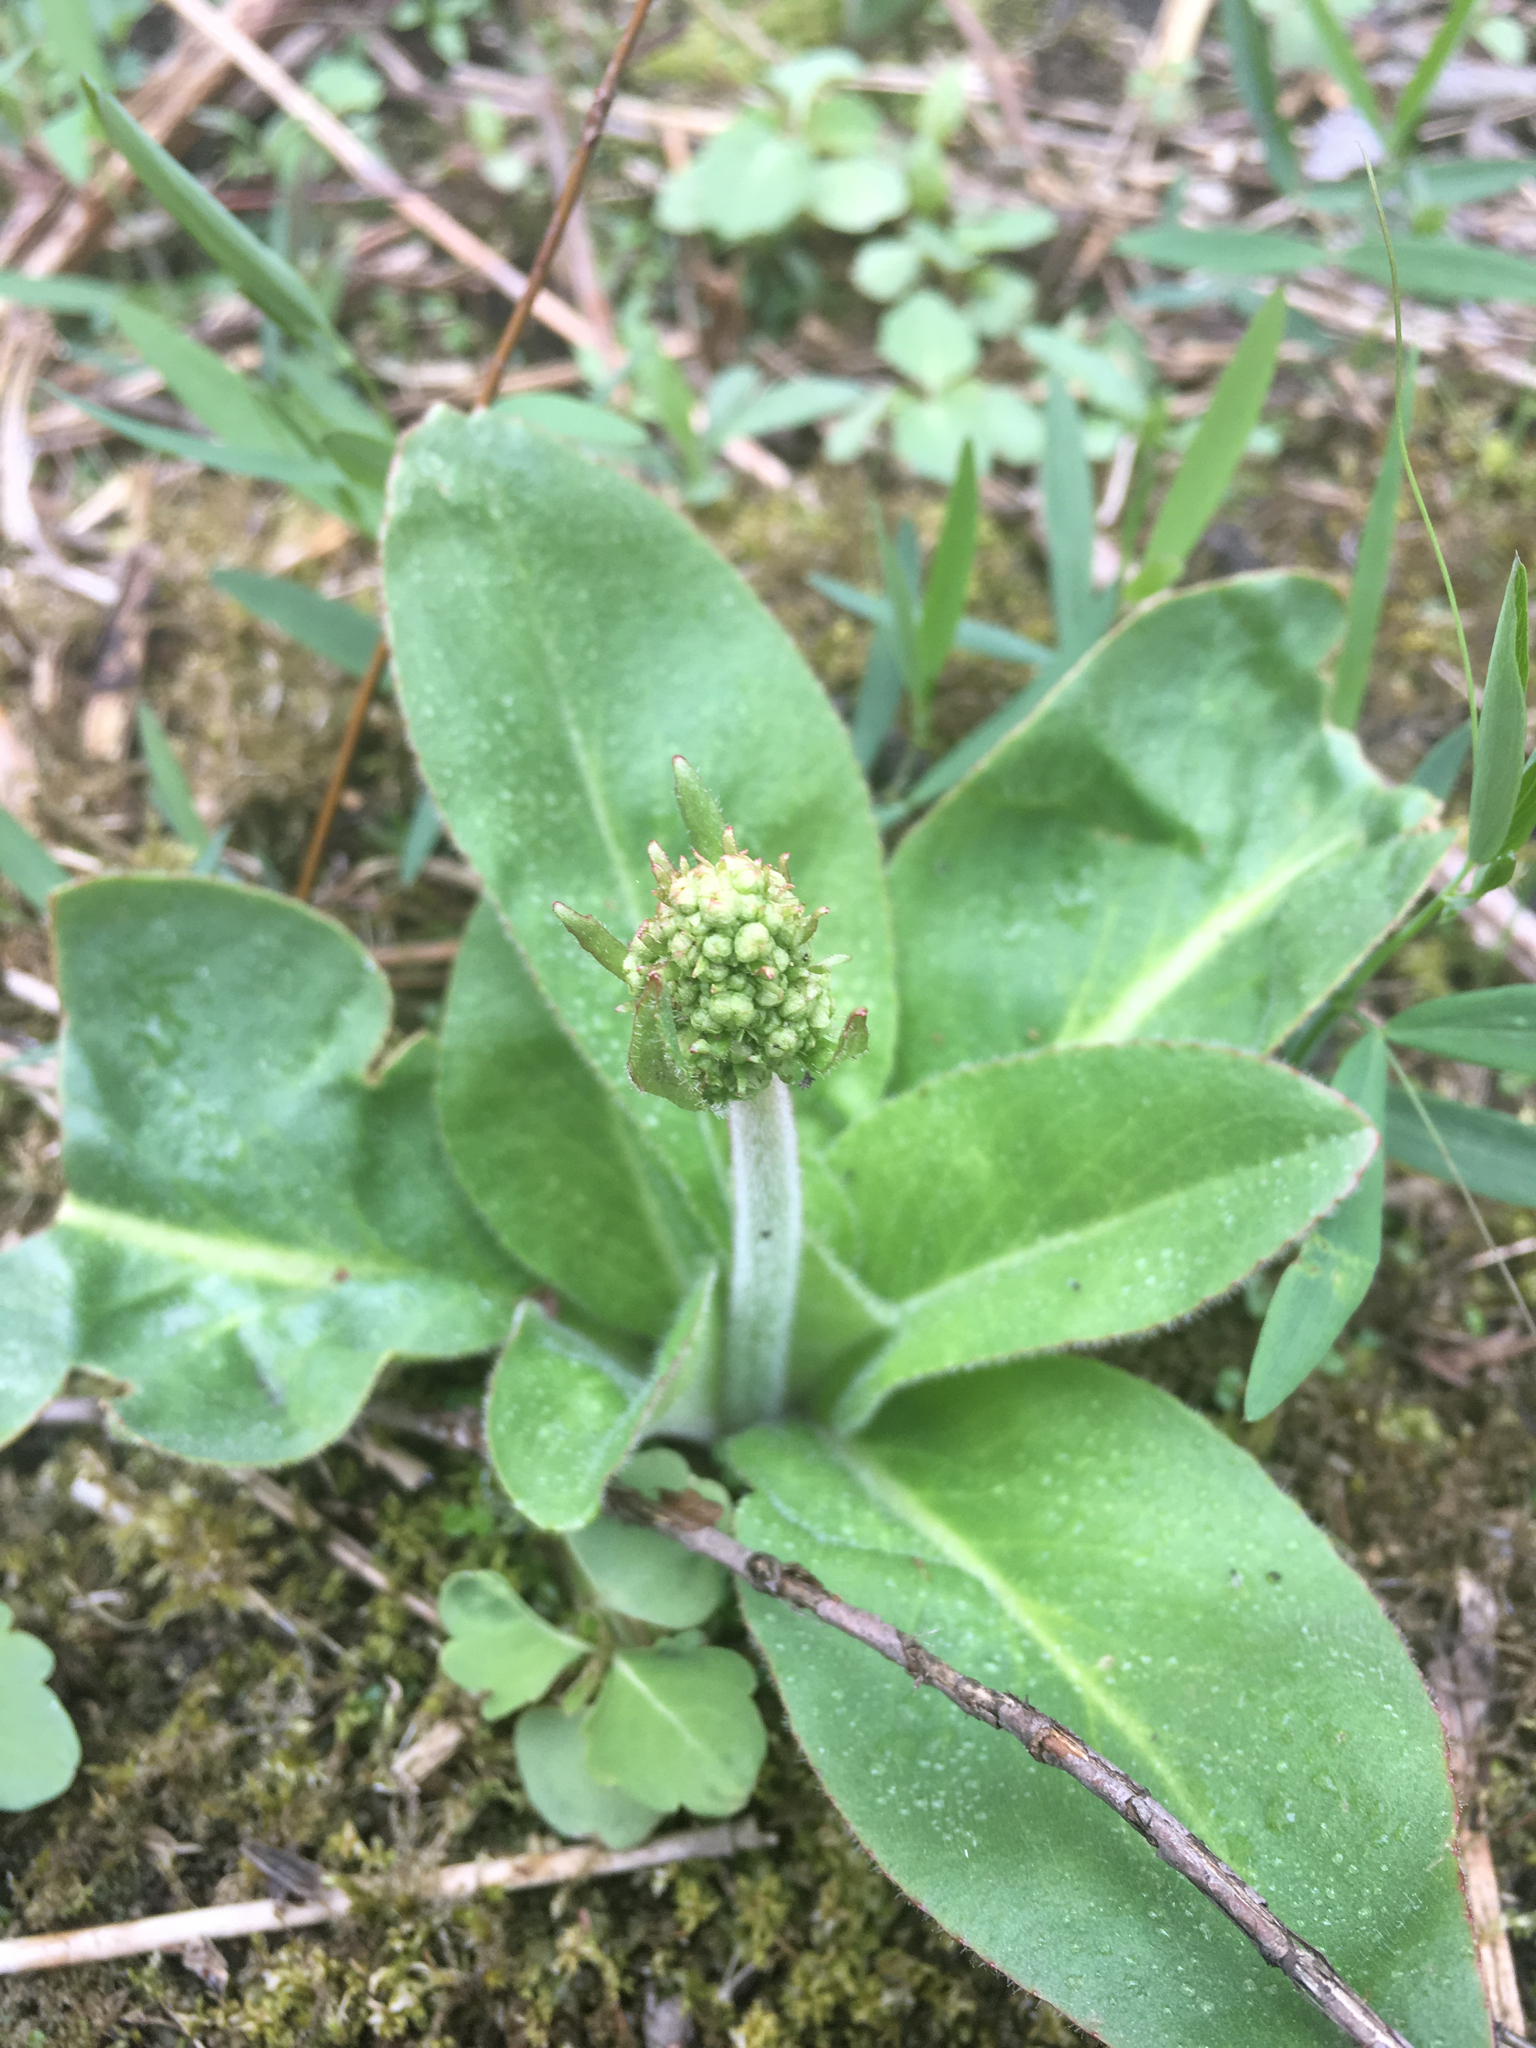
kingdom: Plantae
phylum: Tracheophyta
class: Magnoliopsida
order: Saxifragales
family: Saxifragaceae
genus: Micranthes
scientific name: Micranthes pensylvanica
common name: Marsh saxifrage
